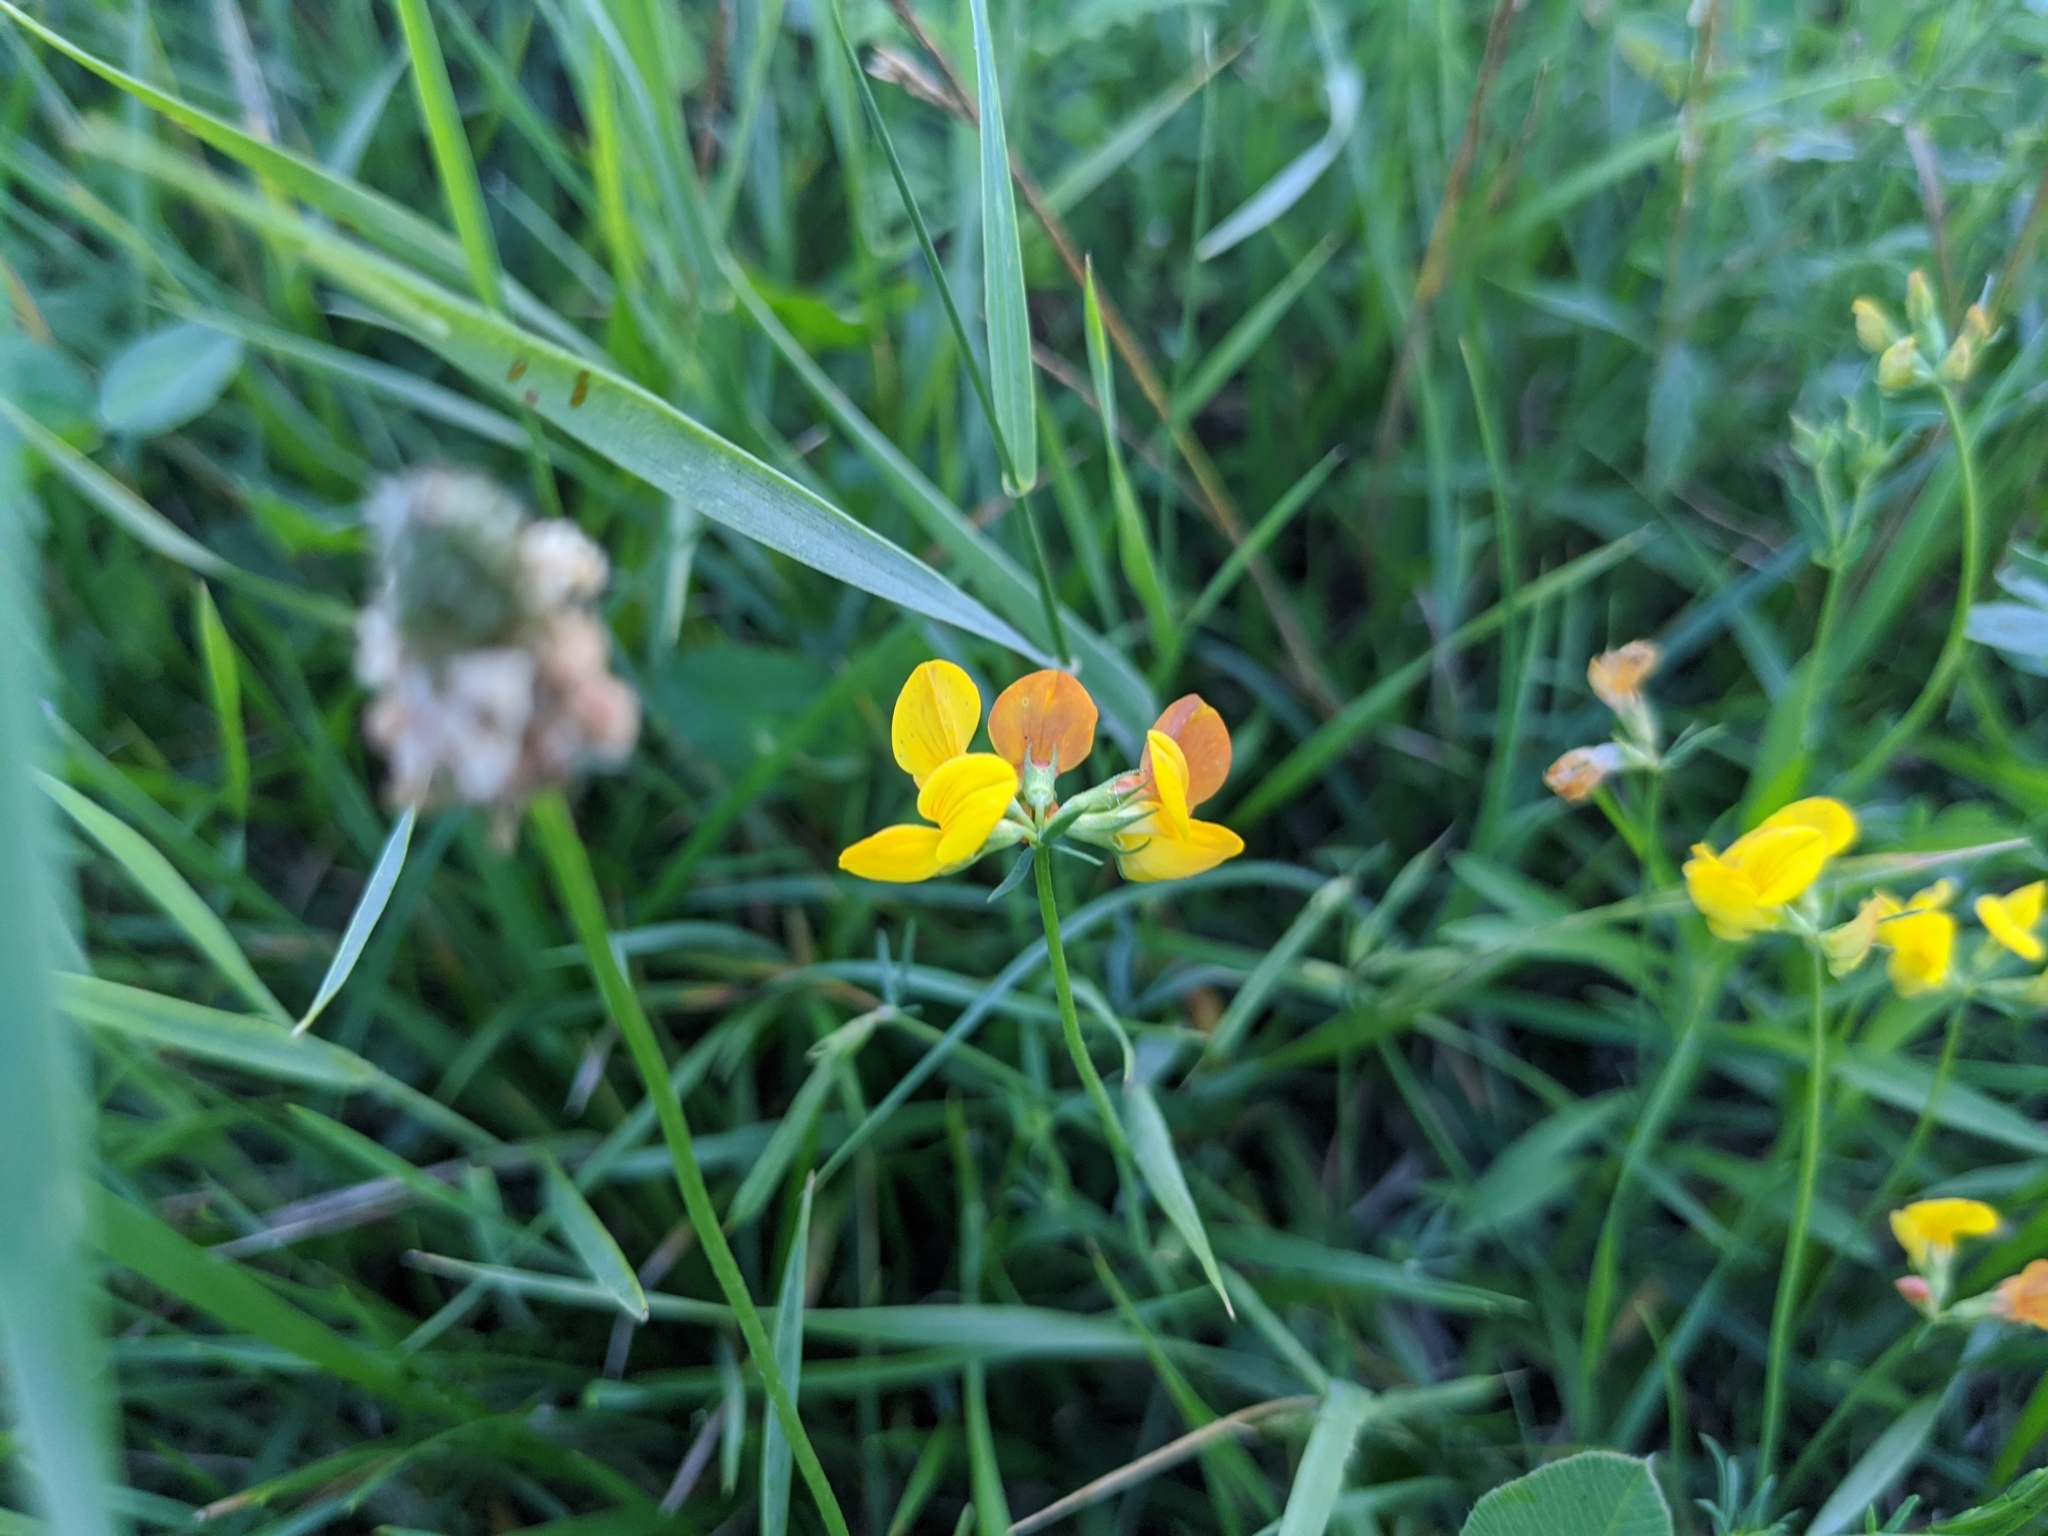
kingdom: Plantae
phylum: Tracheophyta
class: Magnoliopsida
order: Fabales
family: Fabaceae
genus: Lotus
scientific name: Lotus corniculatus
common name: Common bird's-foot-trefoil
